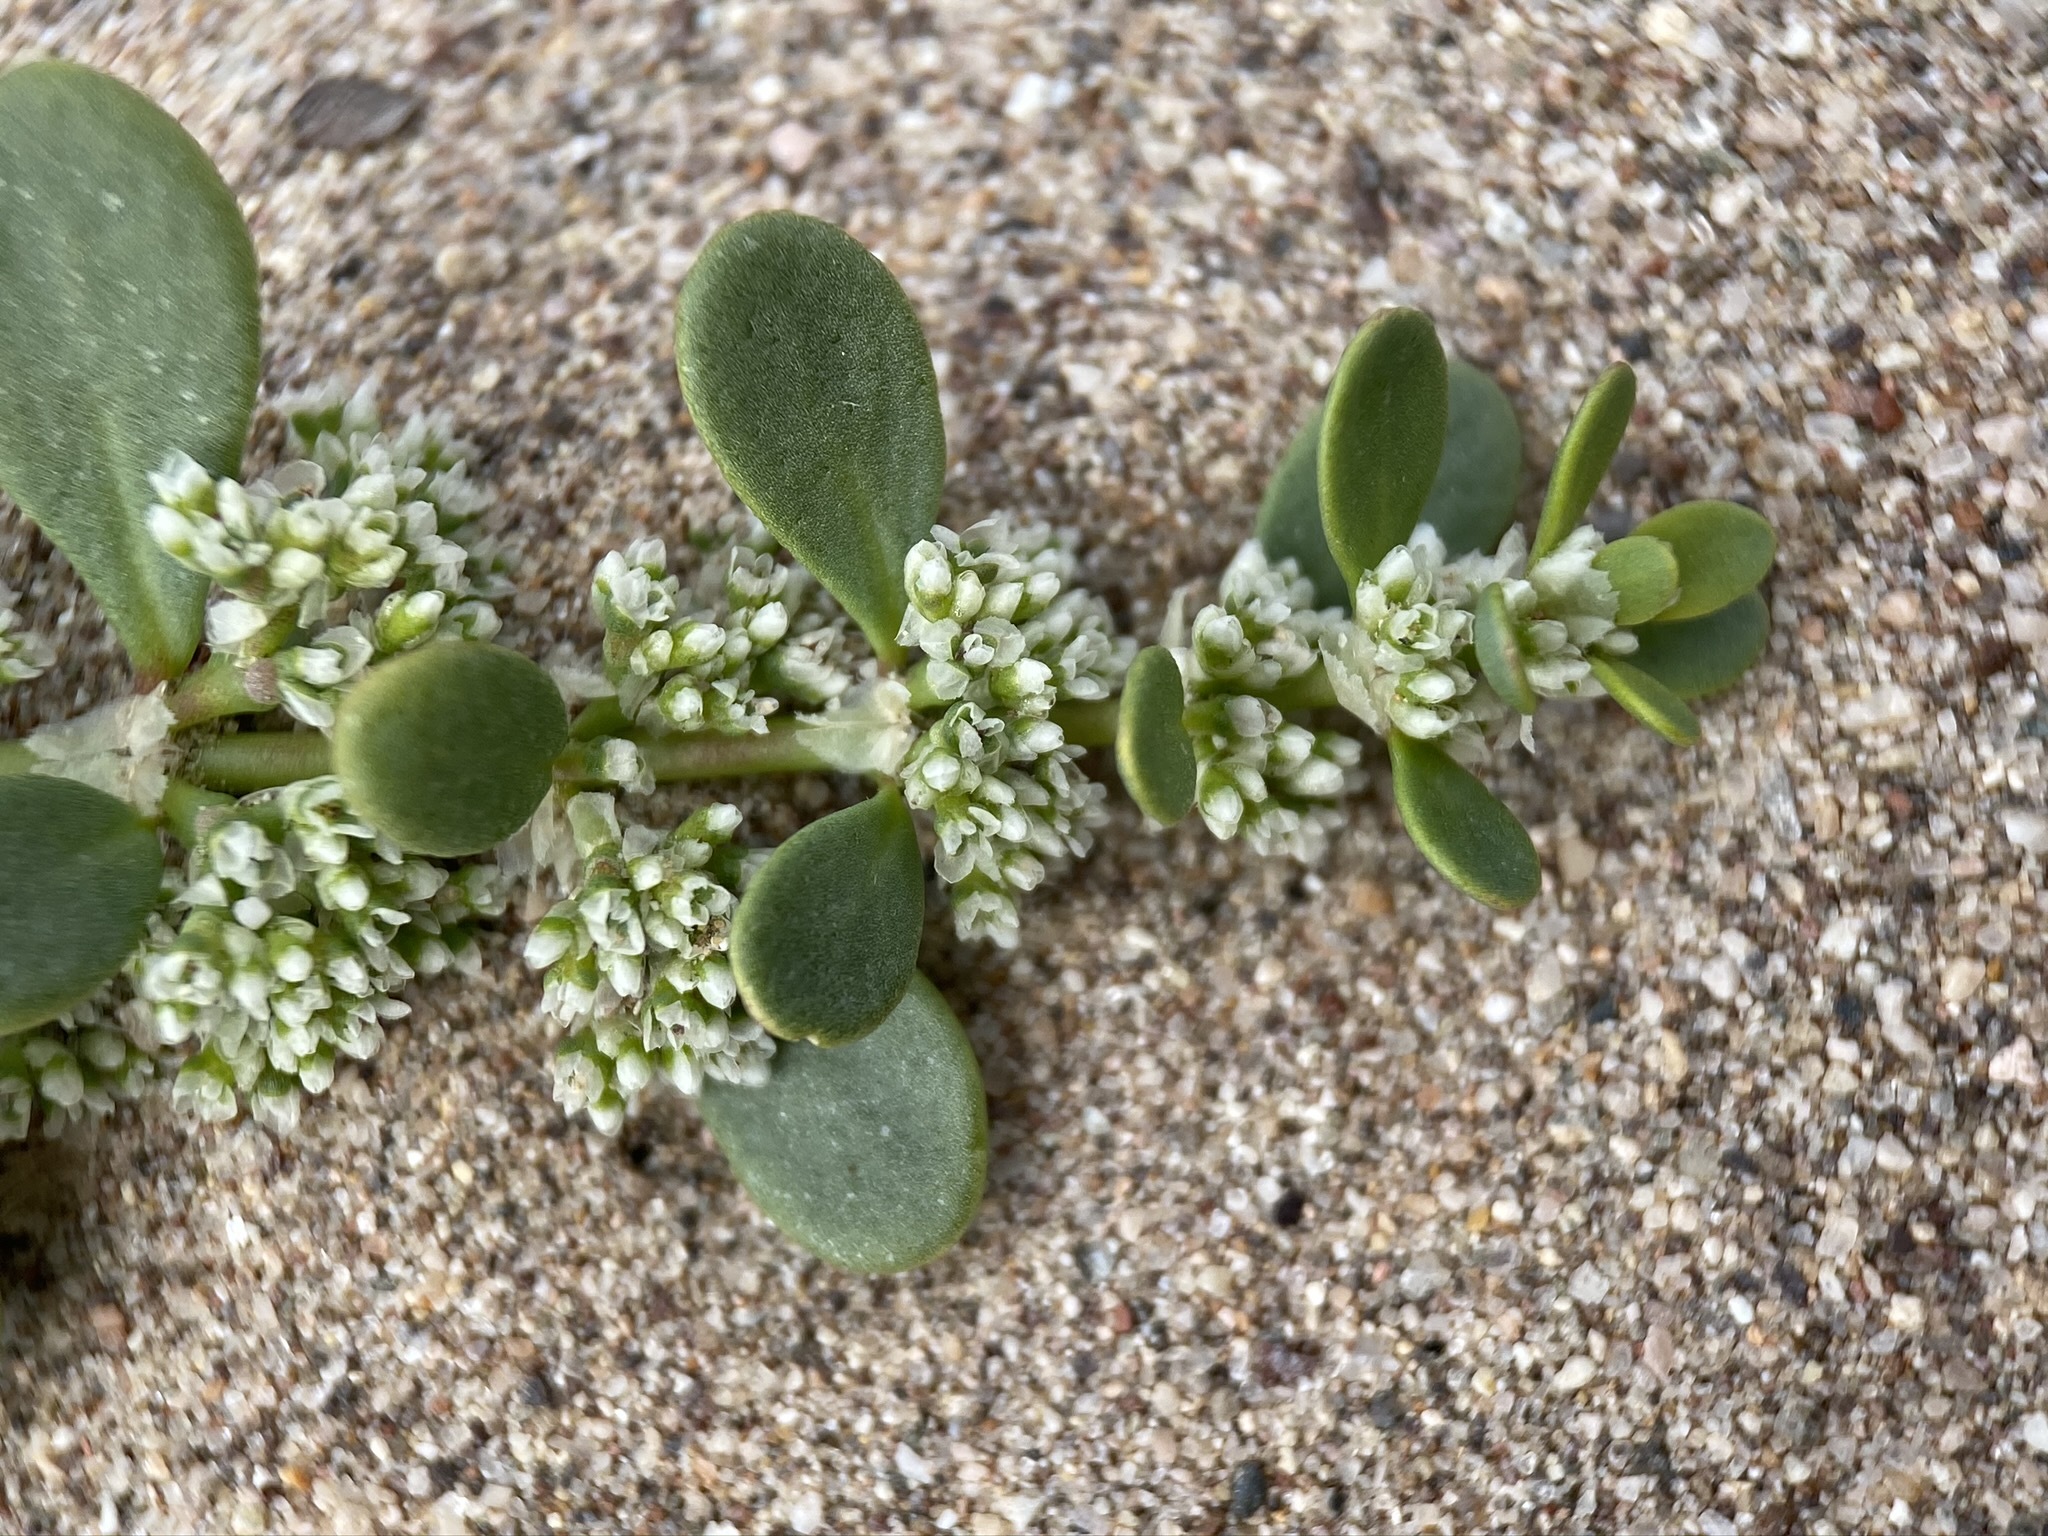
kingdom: Plantae
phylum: Tracheophyta
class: Magnoliopsida
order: Caryophyllales
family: Caryophyllaceae
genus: Achyronychia
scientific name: Achyronychia cooperi
